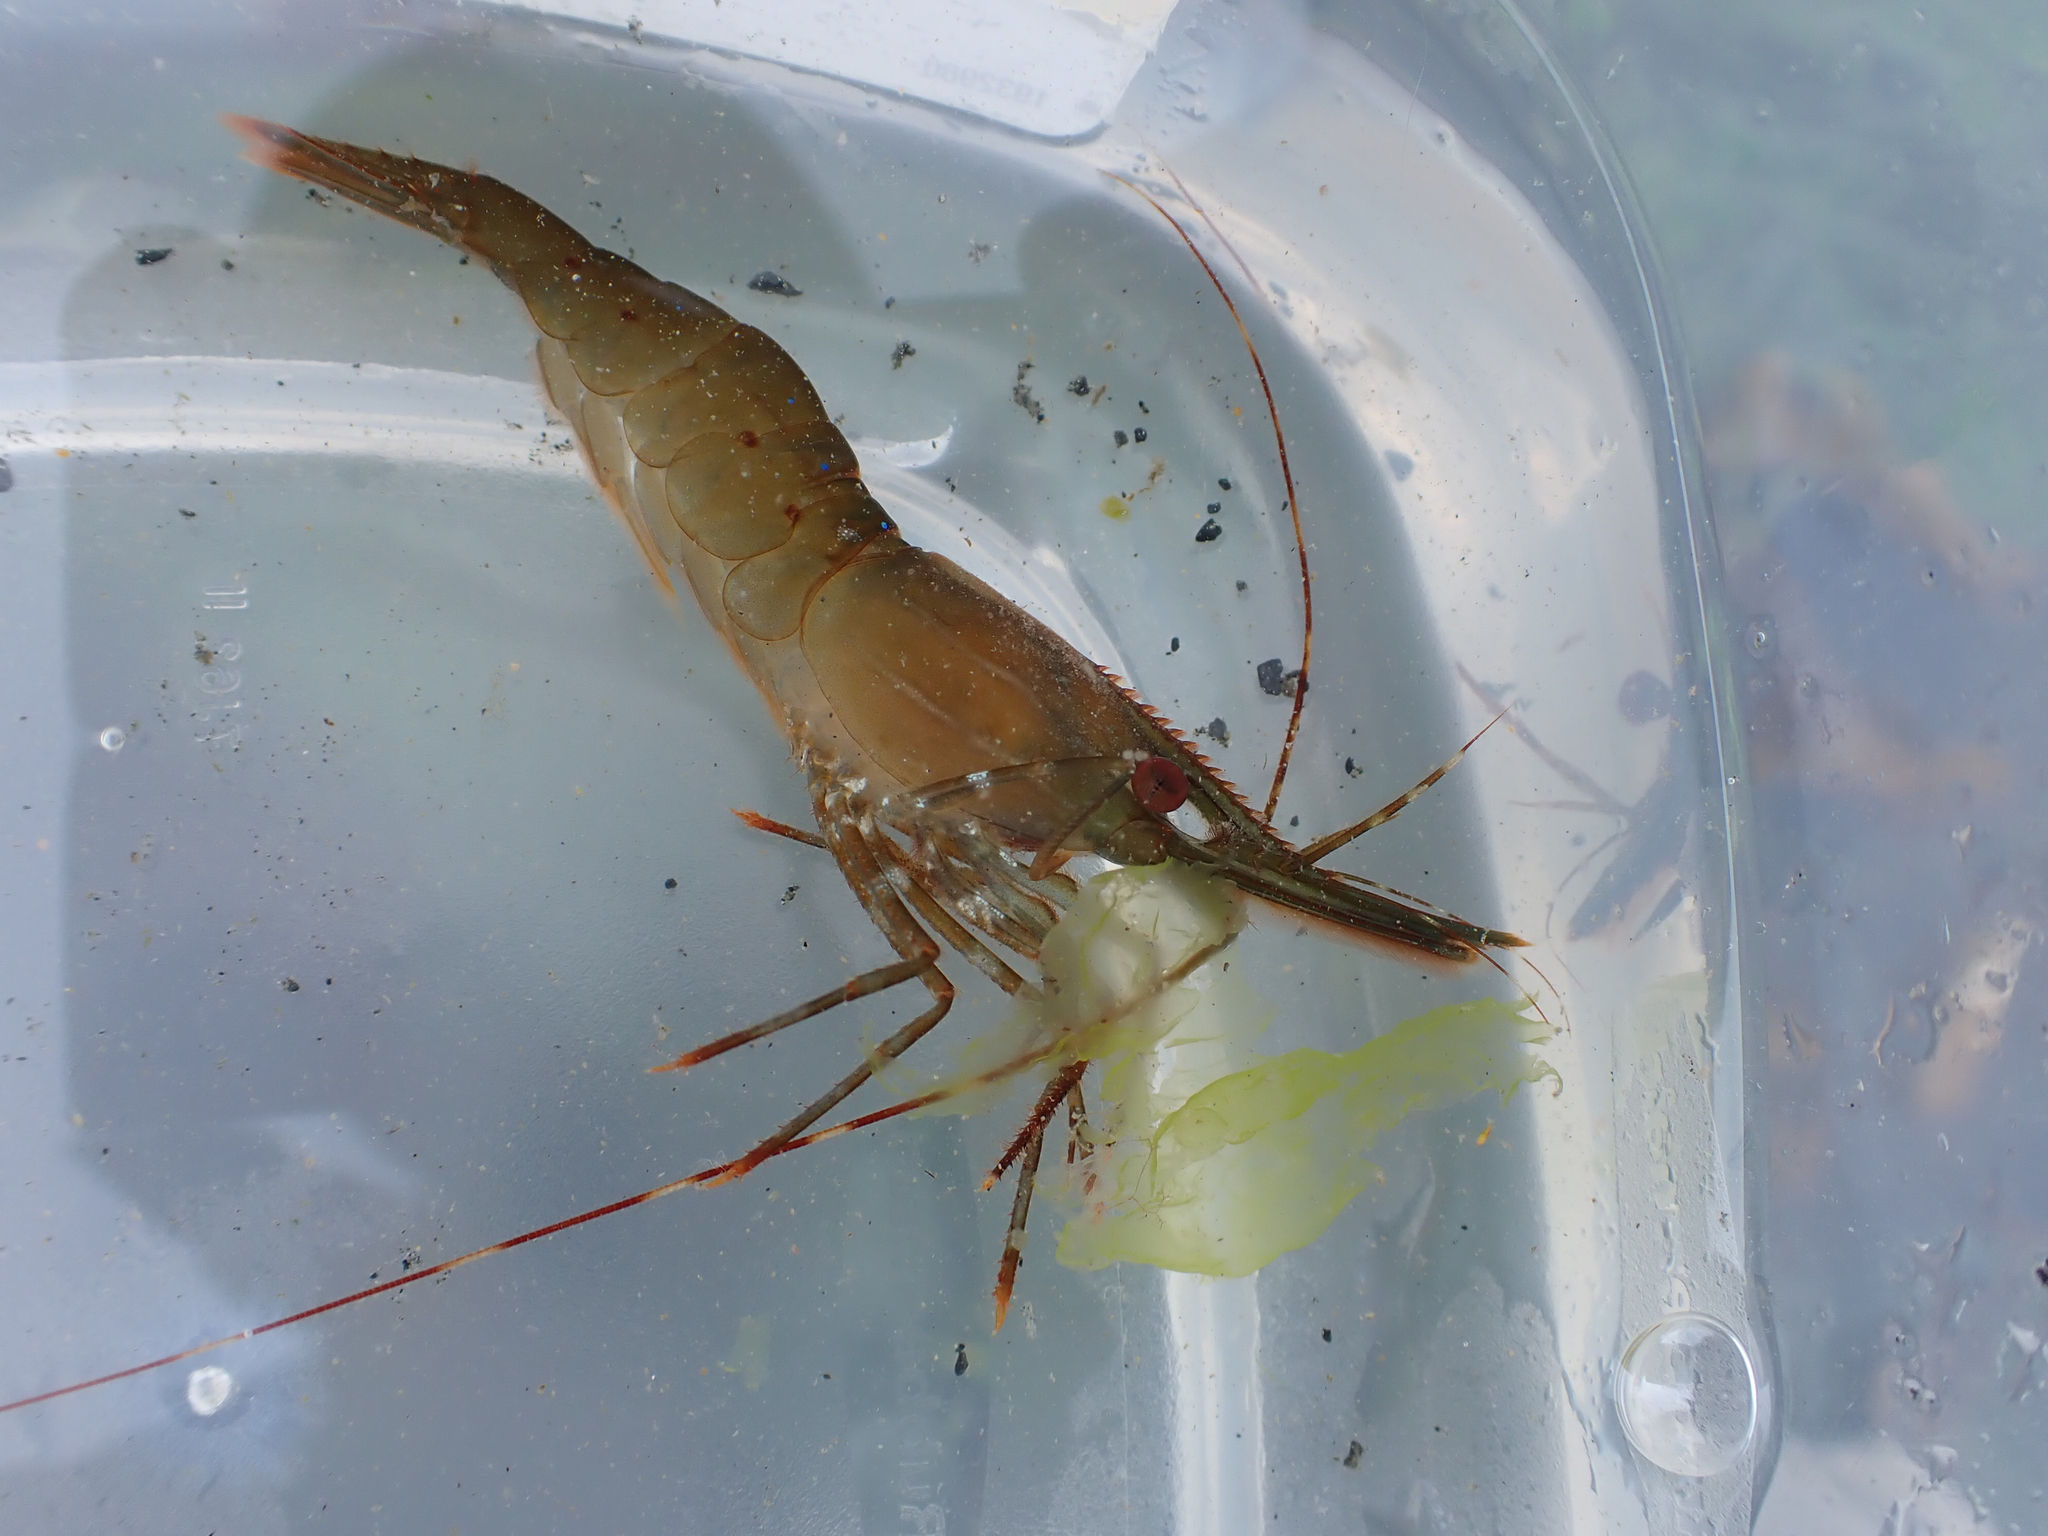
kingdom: Animalia
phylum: Arthropoda
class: Malacostraca
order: Decapoda
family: Pandalidae
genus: Pandalus
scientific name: Pandalus platyceros
